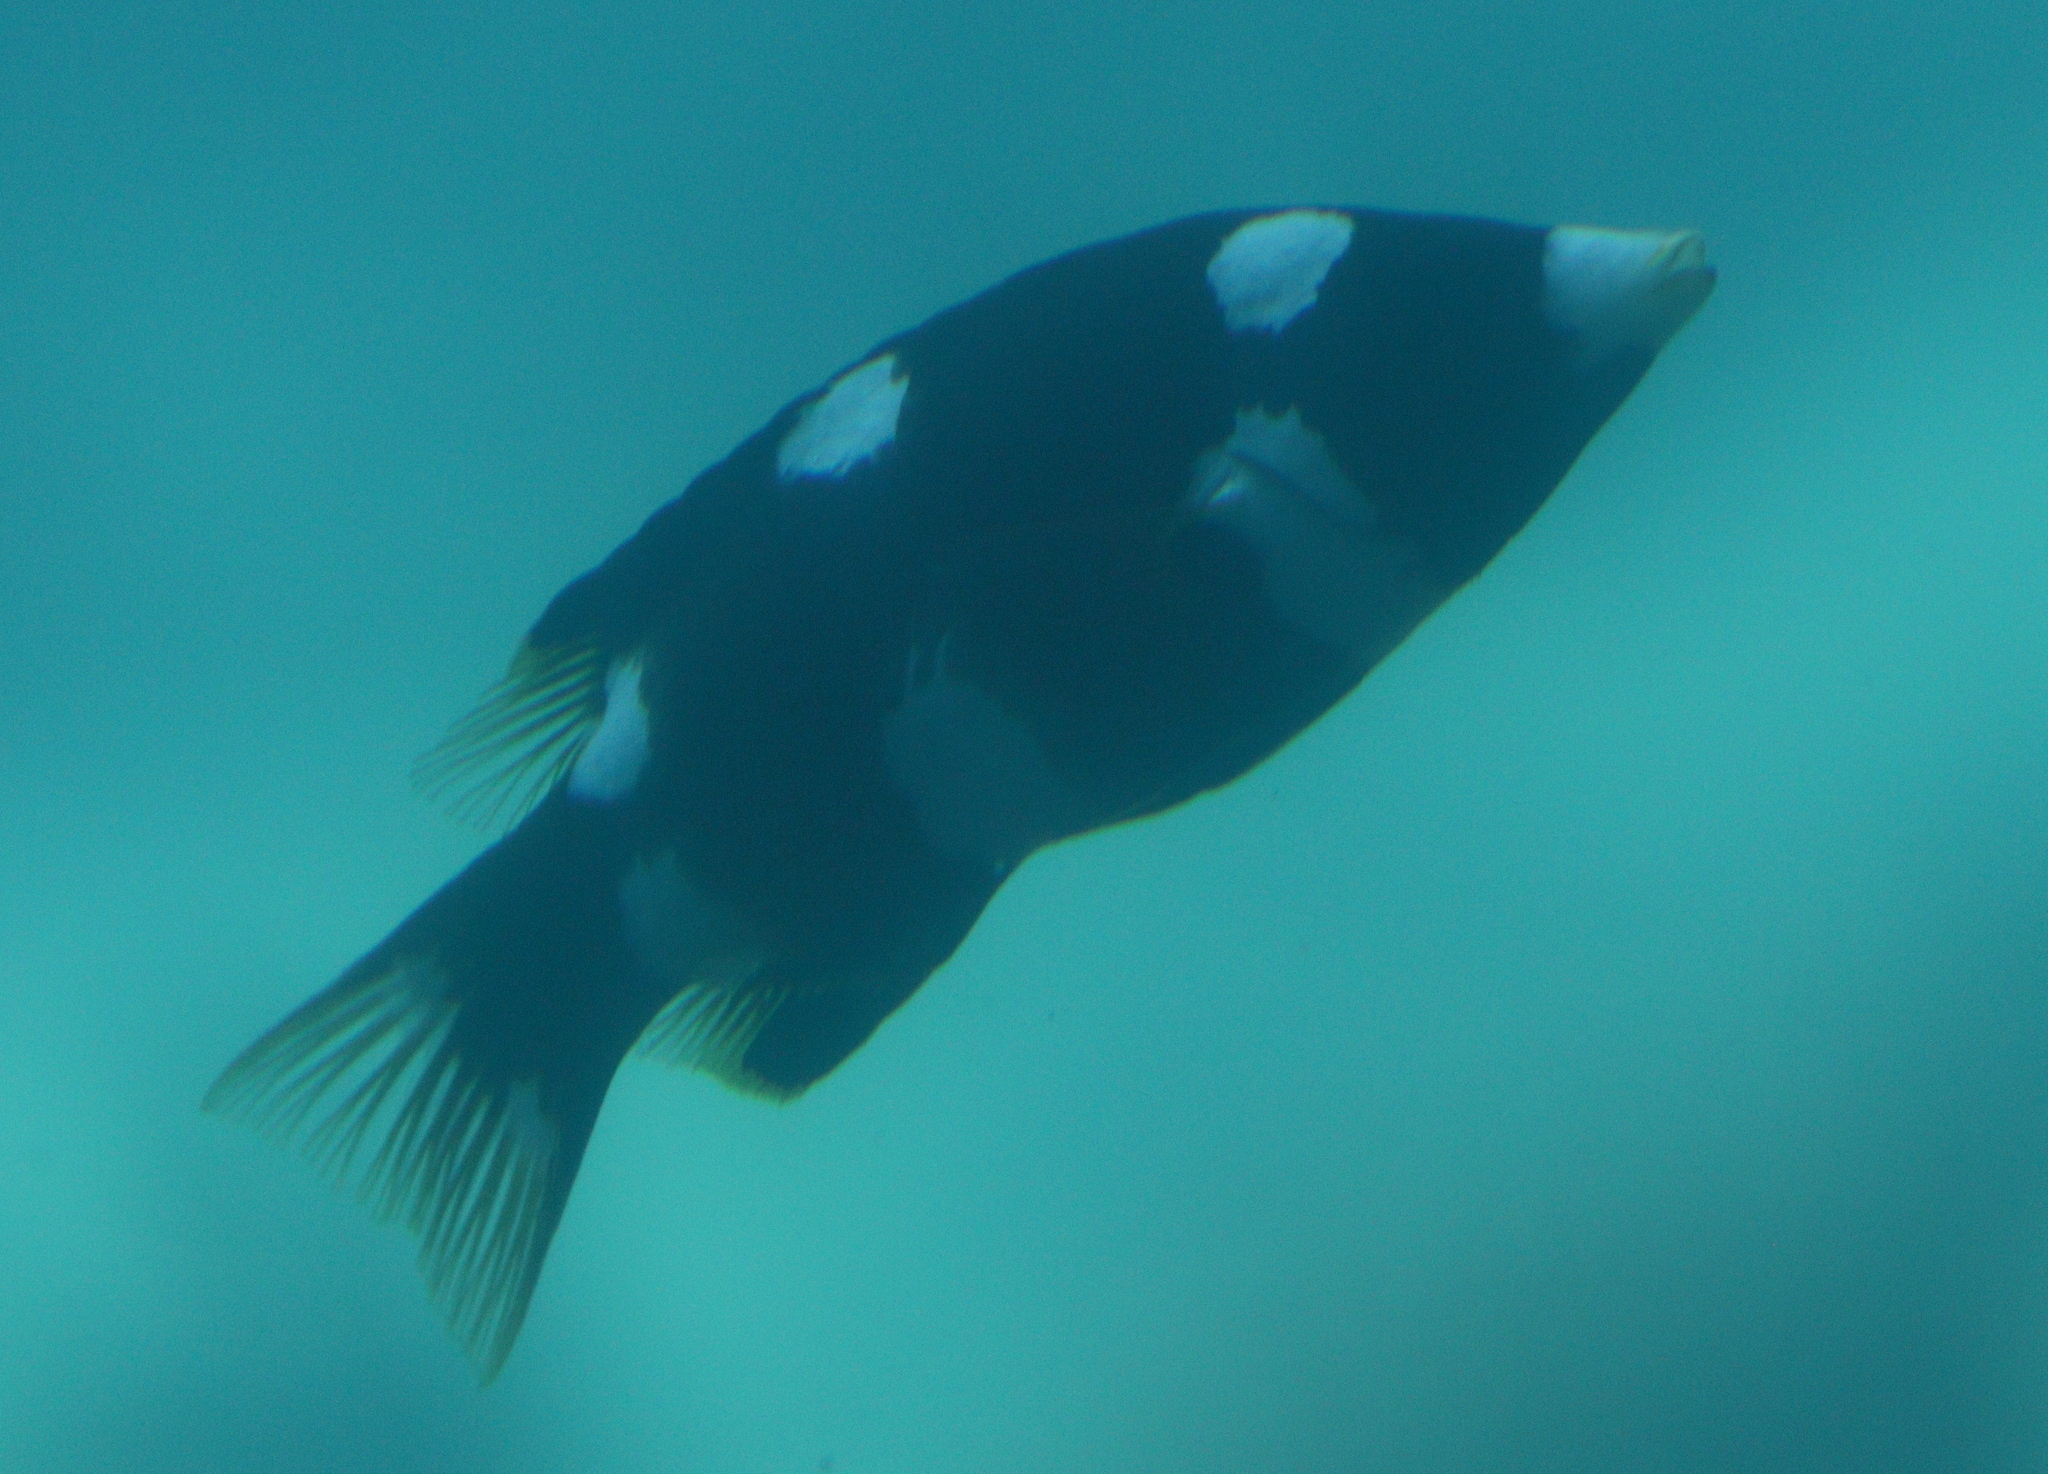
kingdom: Animalia
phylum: Chordata
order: Perciformes
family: Labridae
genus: Bodianus
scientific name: Bodianus axillaris
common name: Axilspot hogfish
